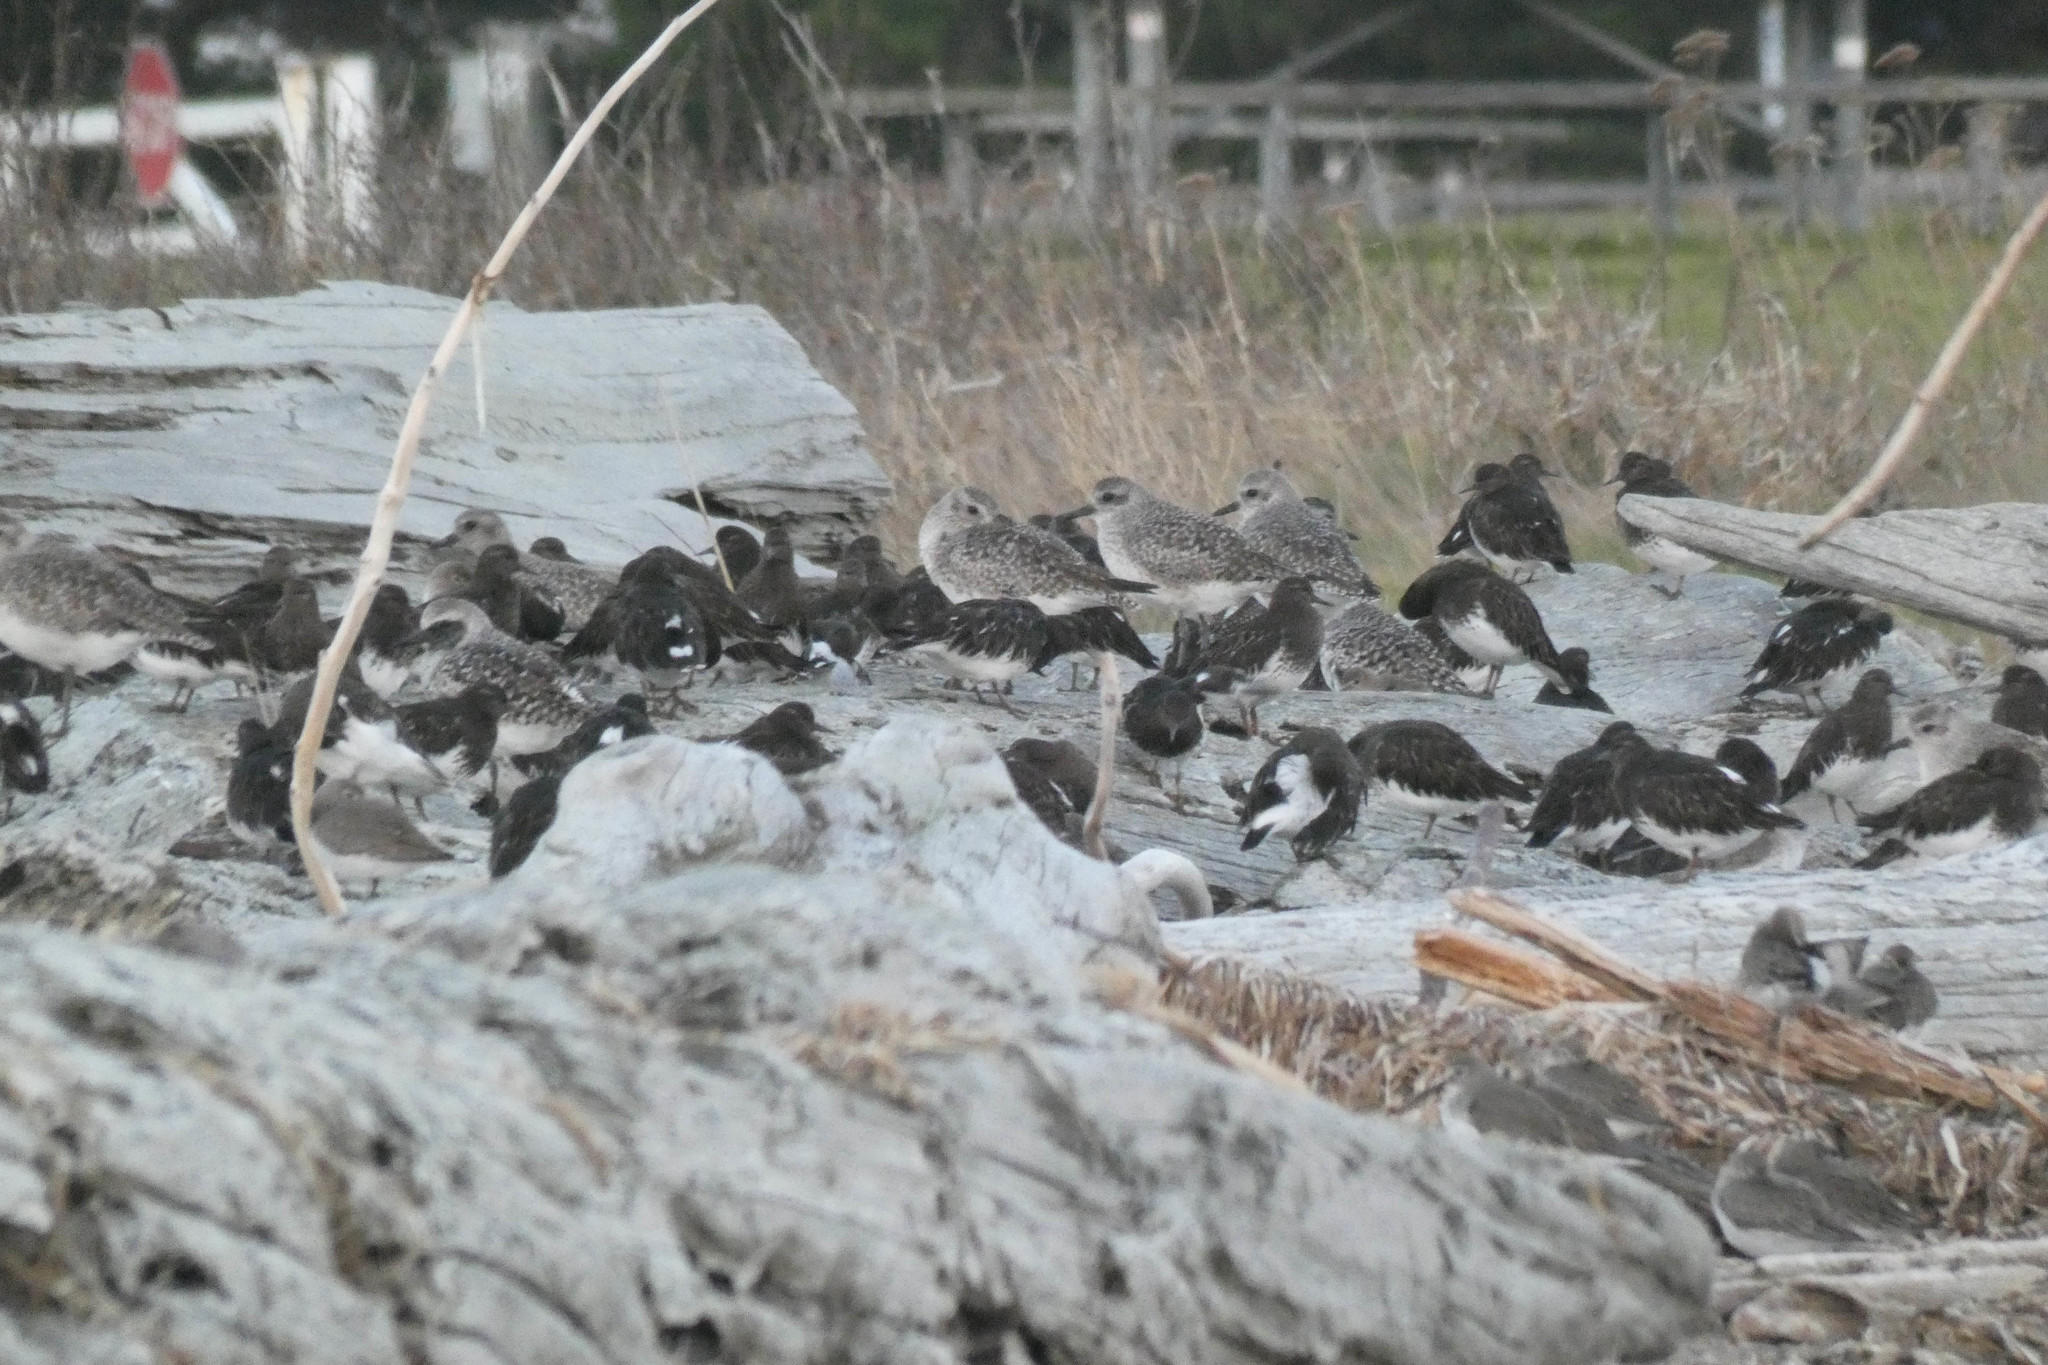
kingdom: Animalia
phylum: Chordata
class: Aves
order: Charadriiformes
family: Scolopacidae
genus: Arenaria
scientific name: Arenaria melanocephala
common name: Black turnstone
